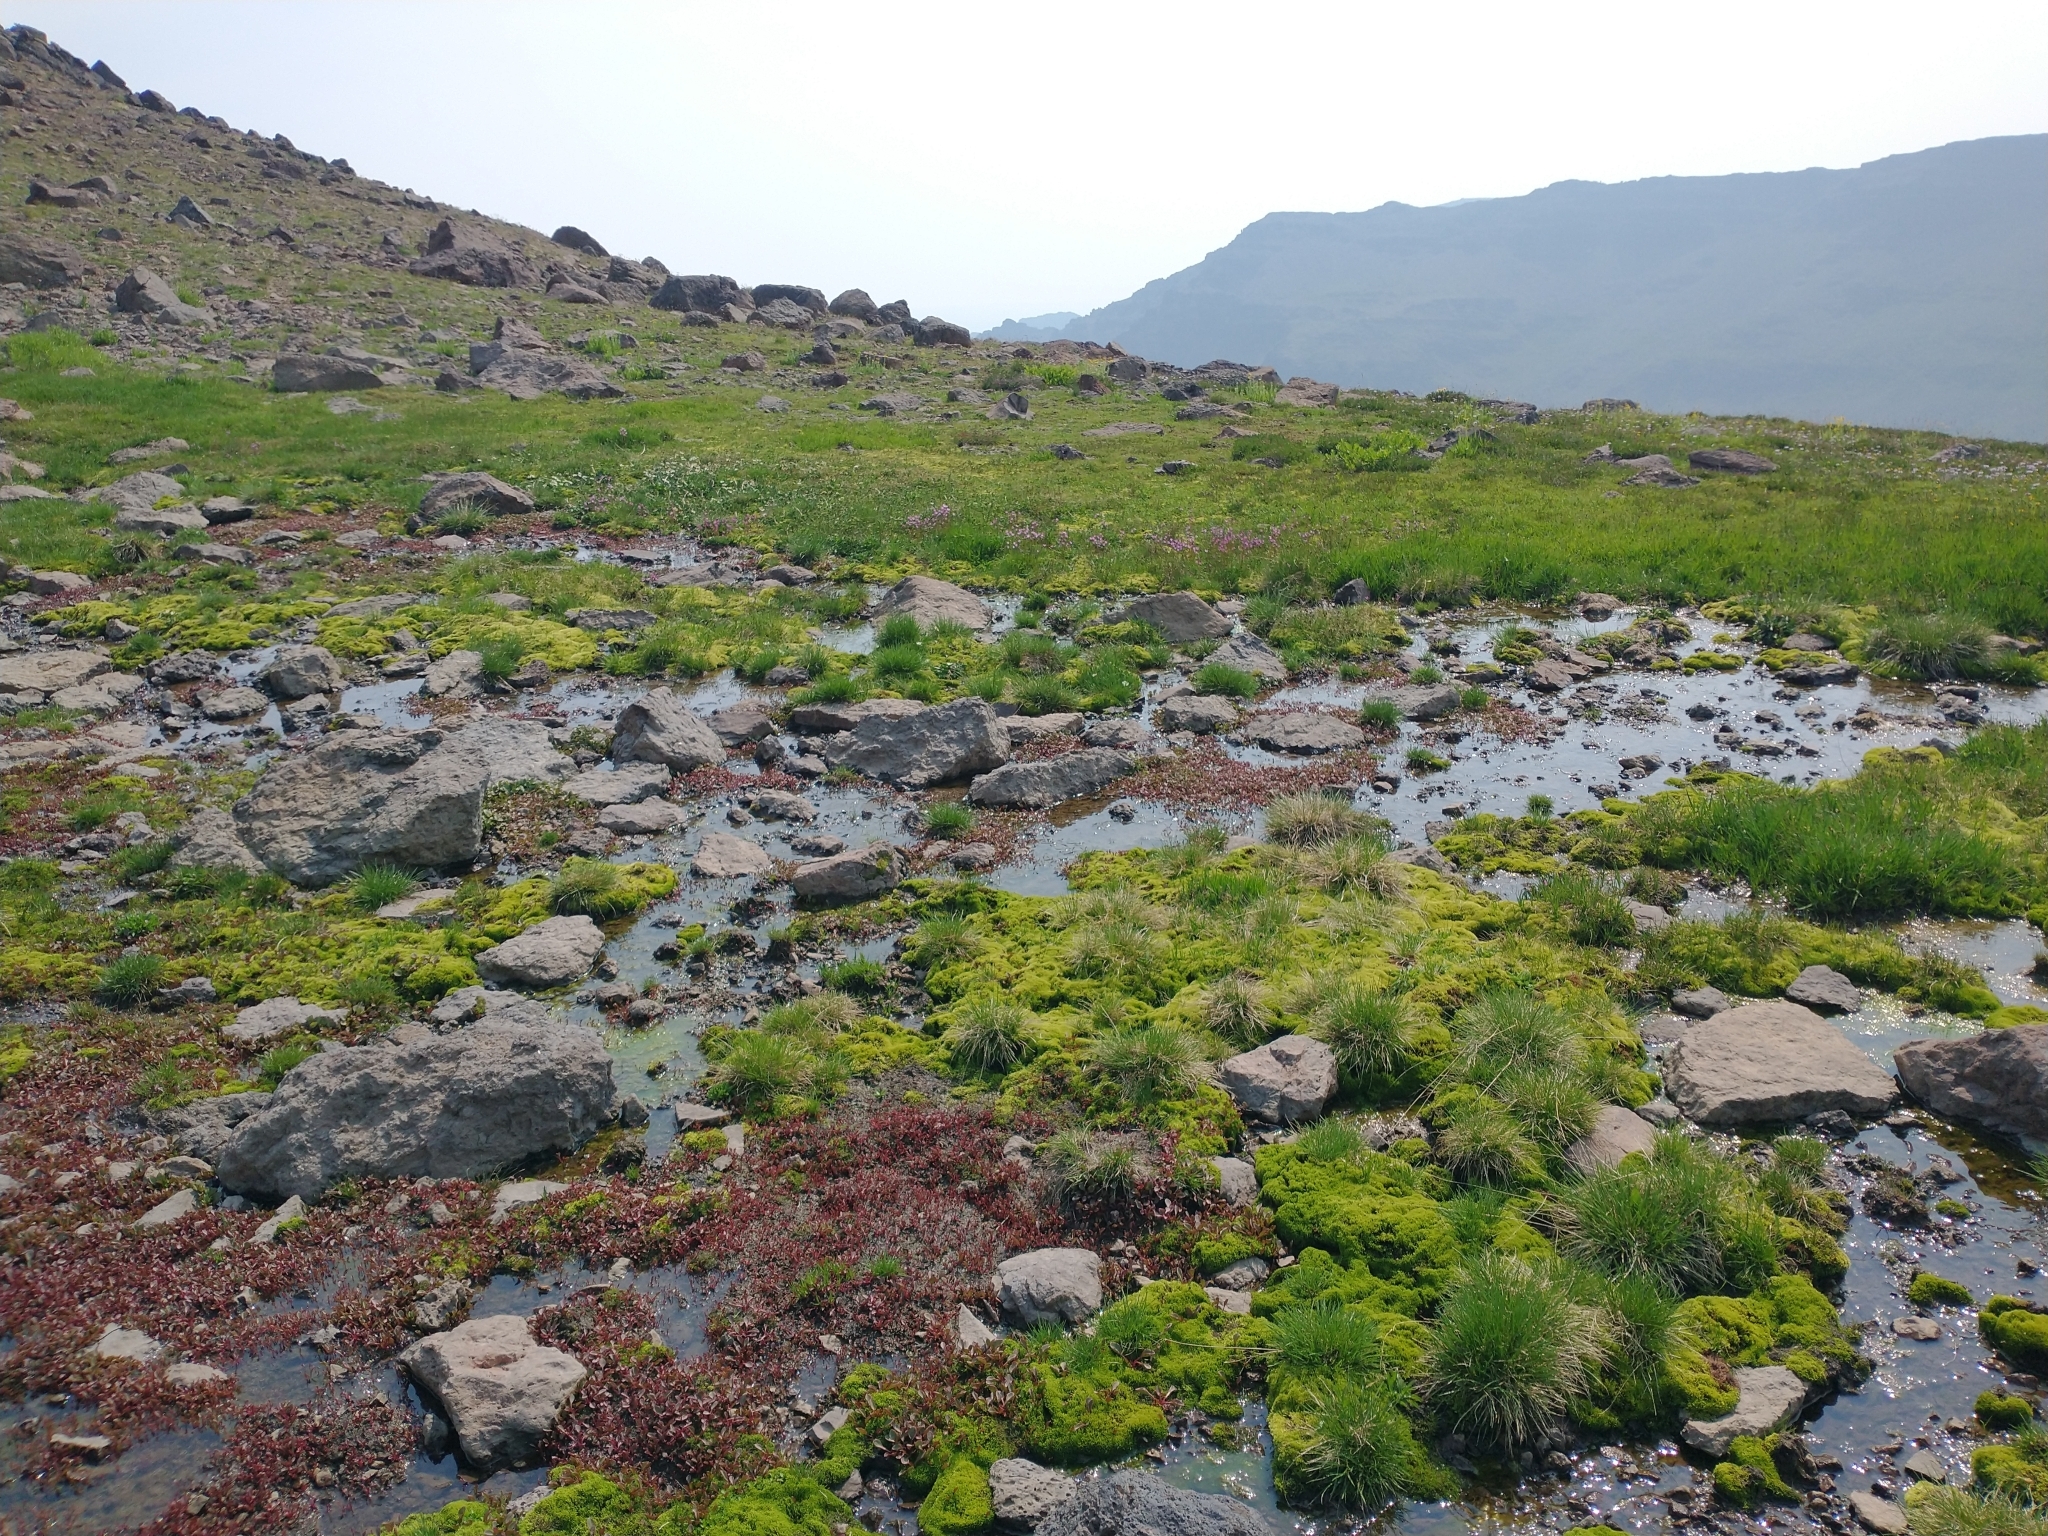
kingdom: Plantae
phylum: Tracheophyta
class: Magnoliopsida
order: Caryophyllales
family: Montiaceae
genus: Claytonia
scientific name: Claytonia nevadensis
